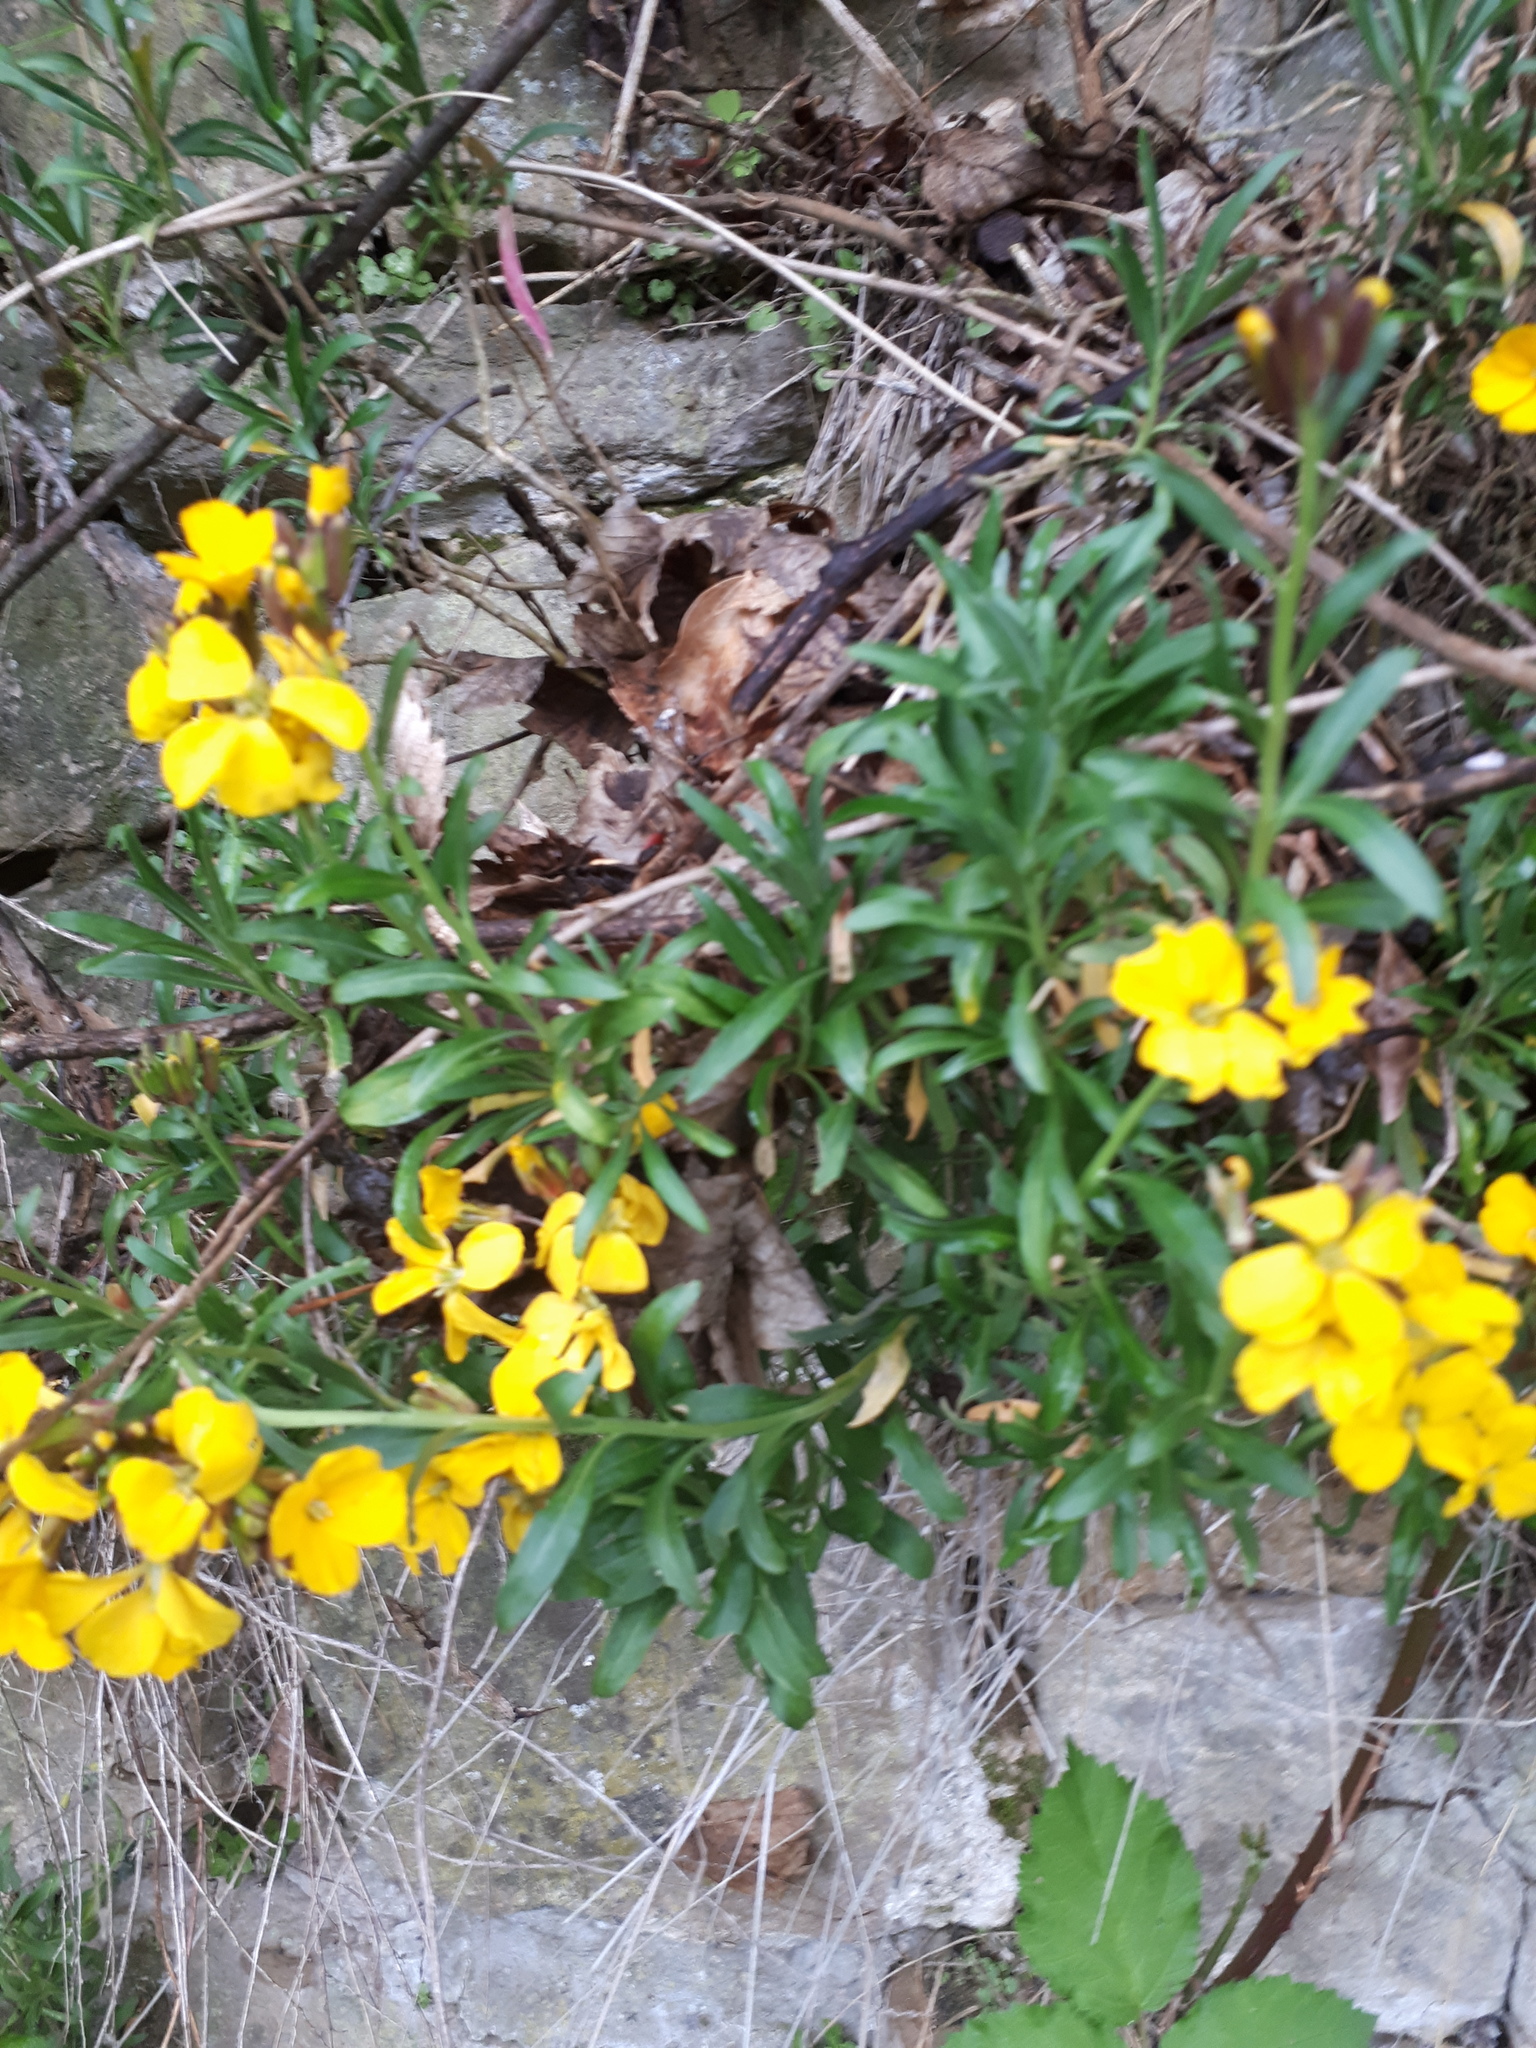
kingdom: Plantae
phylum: Tracheophyta
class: Magnoliopsida
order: Brassicales
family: Brassicaceae
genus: Erysimum
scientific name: Erysimum cheiri
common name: Wallflower
